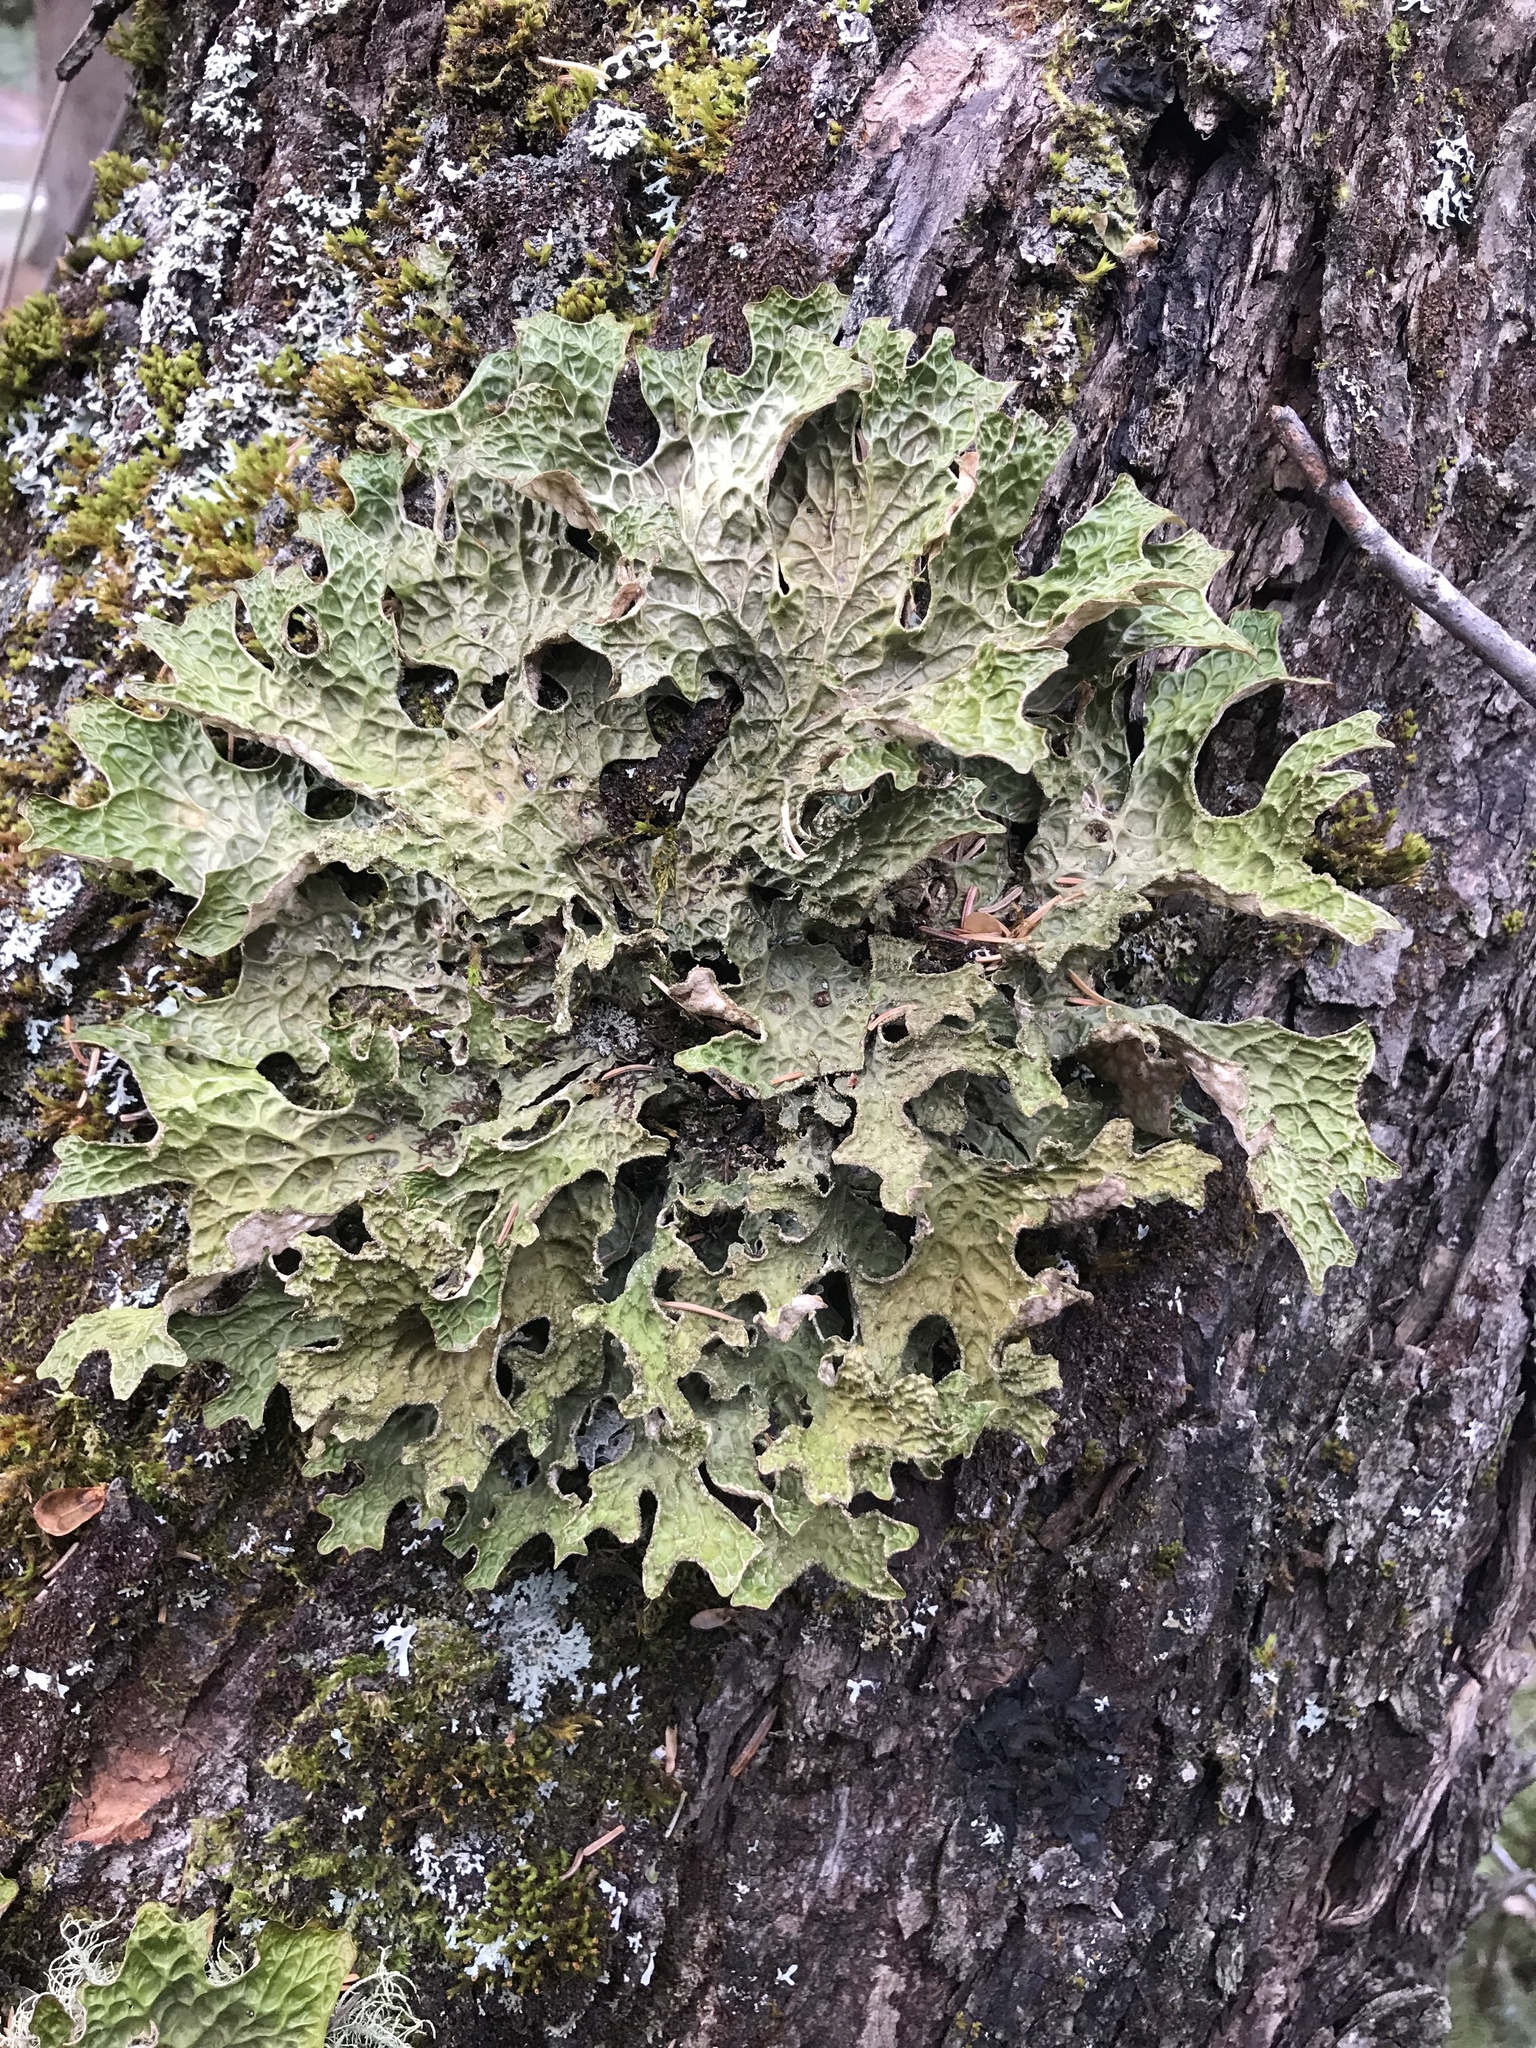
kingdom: Fungi
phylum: Ascomycota
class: Lecanoromycetes
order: Peltigerales
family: Lobariaceae
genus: Lobaria
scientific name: Lobaria pulmonaria
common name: Lungwort
